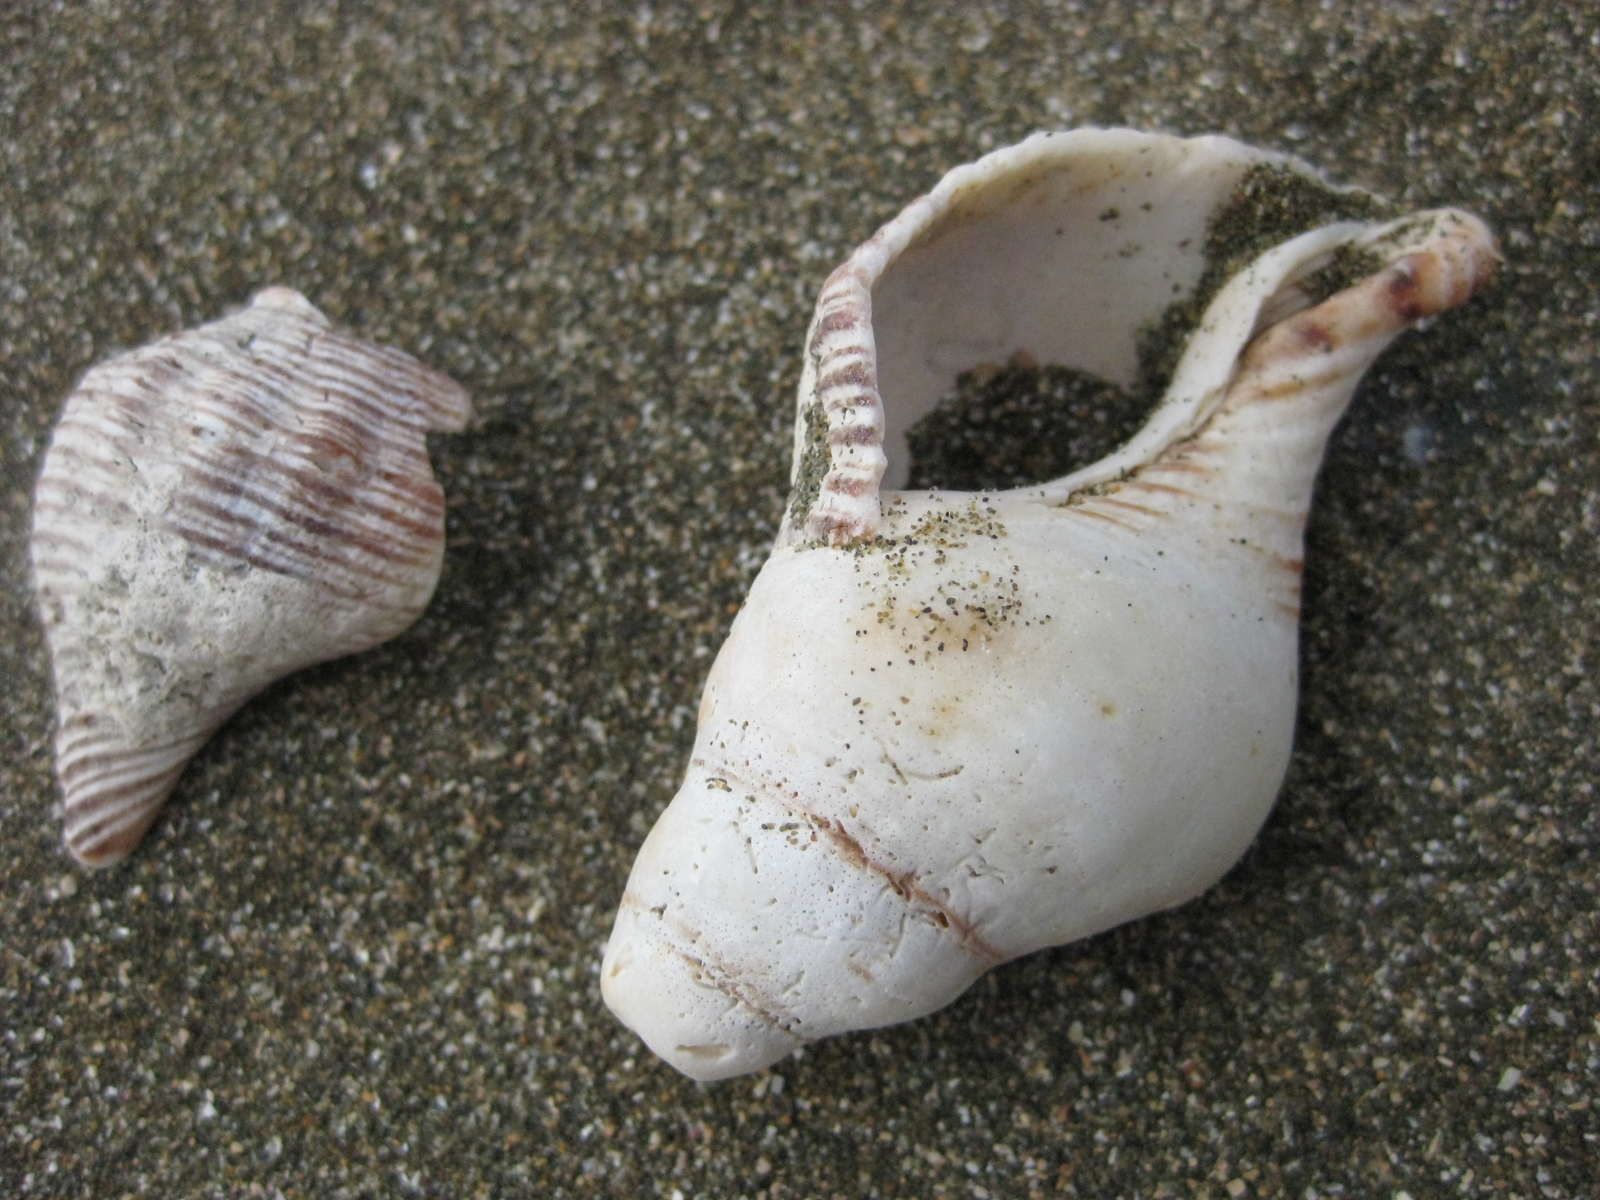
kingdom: Animalia
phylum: Mollusca
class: Gastropoda
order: Neogastropoda
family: Austrosiphonidae
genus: Penion
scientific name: Penion sulcatus
